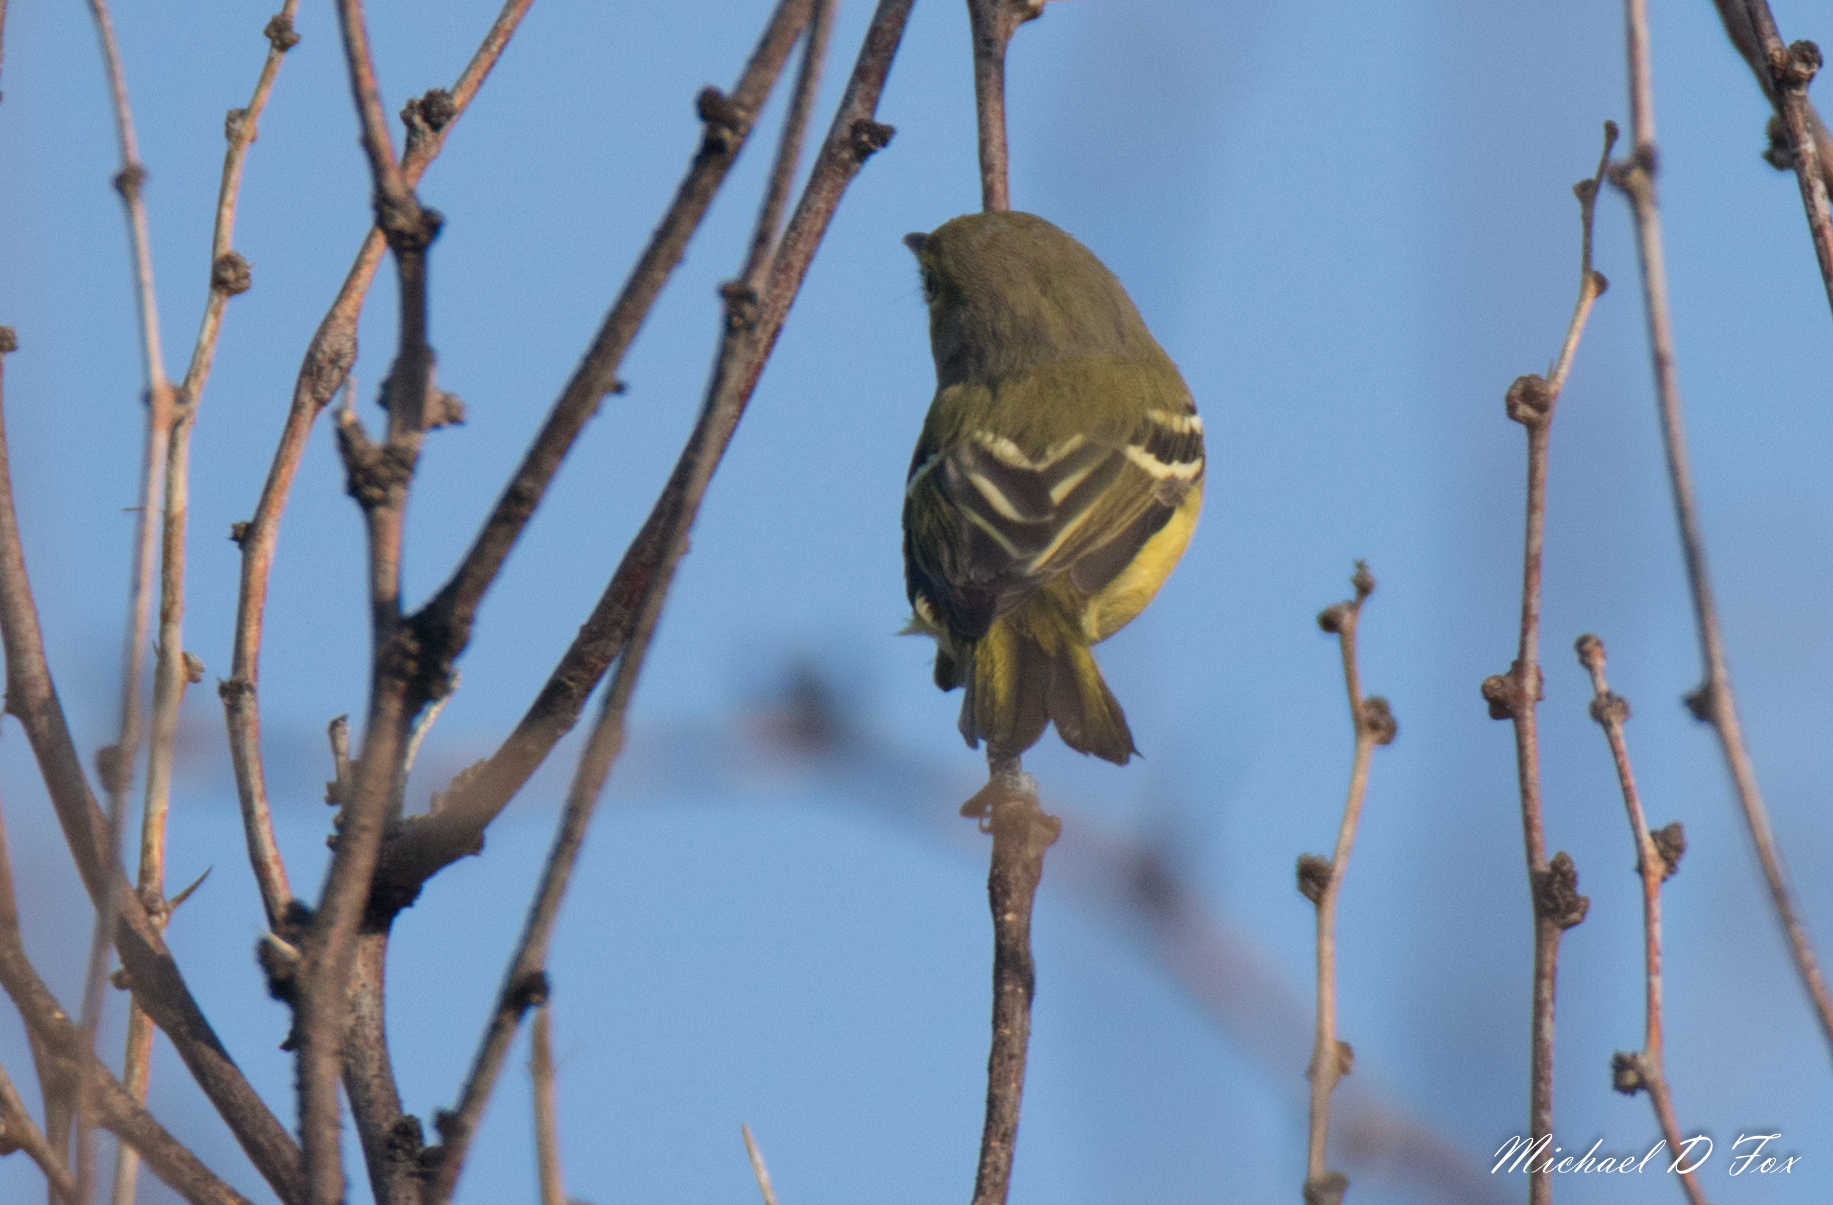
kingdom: Animalia
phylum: Chordata
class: Aves
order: Passeriformes
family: Vireonidae
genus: Vireo
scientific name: Vireo griseus
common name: White-eyed vireo
